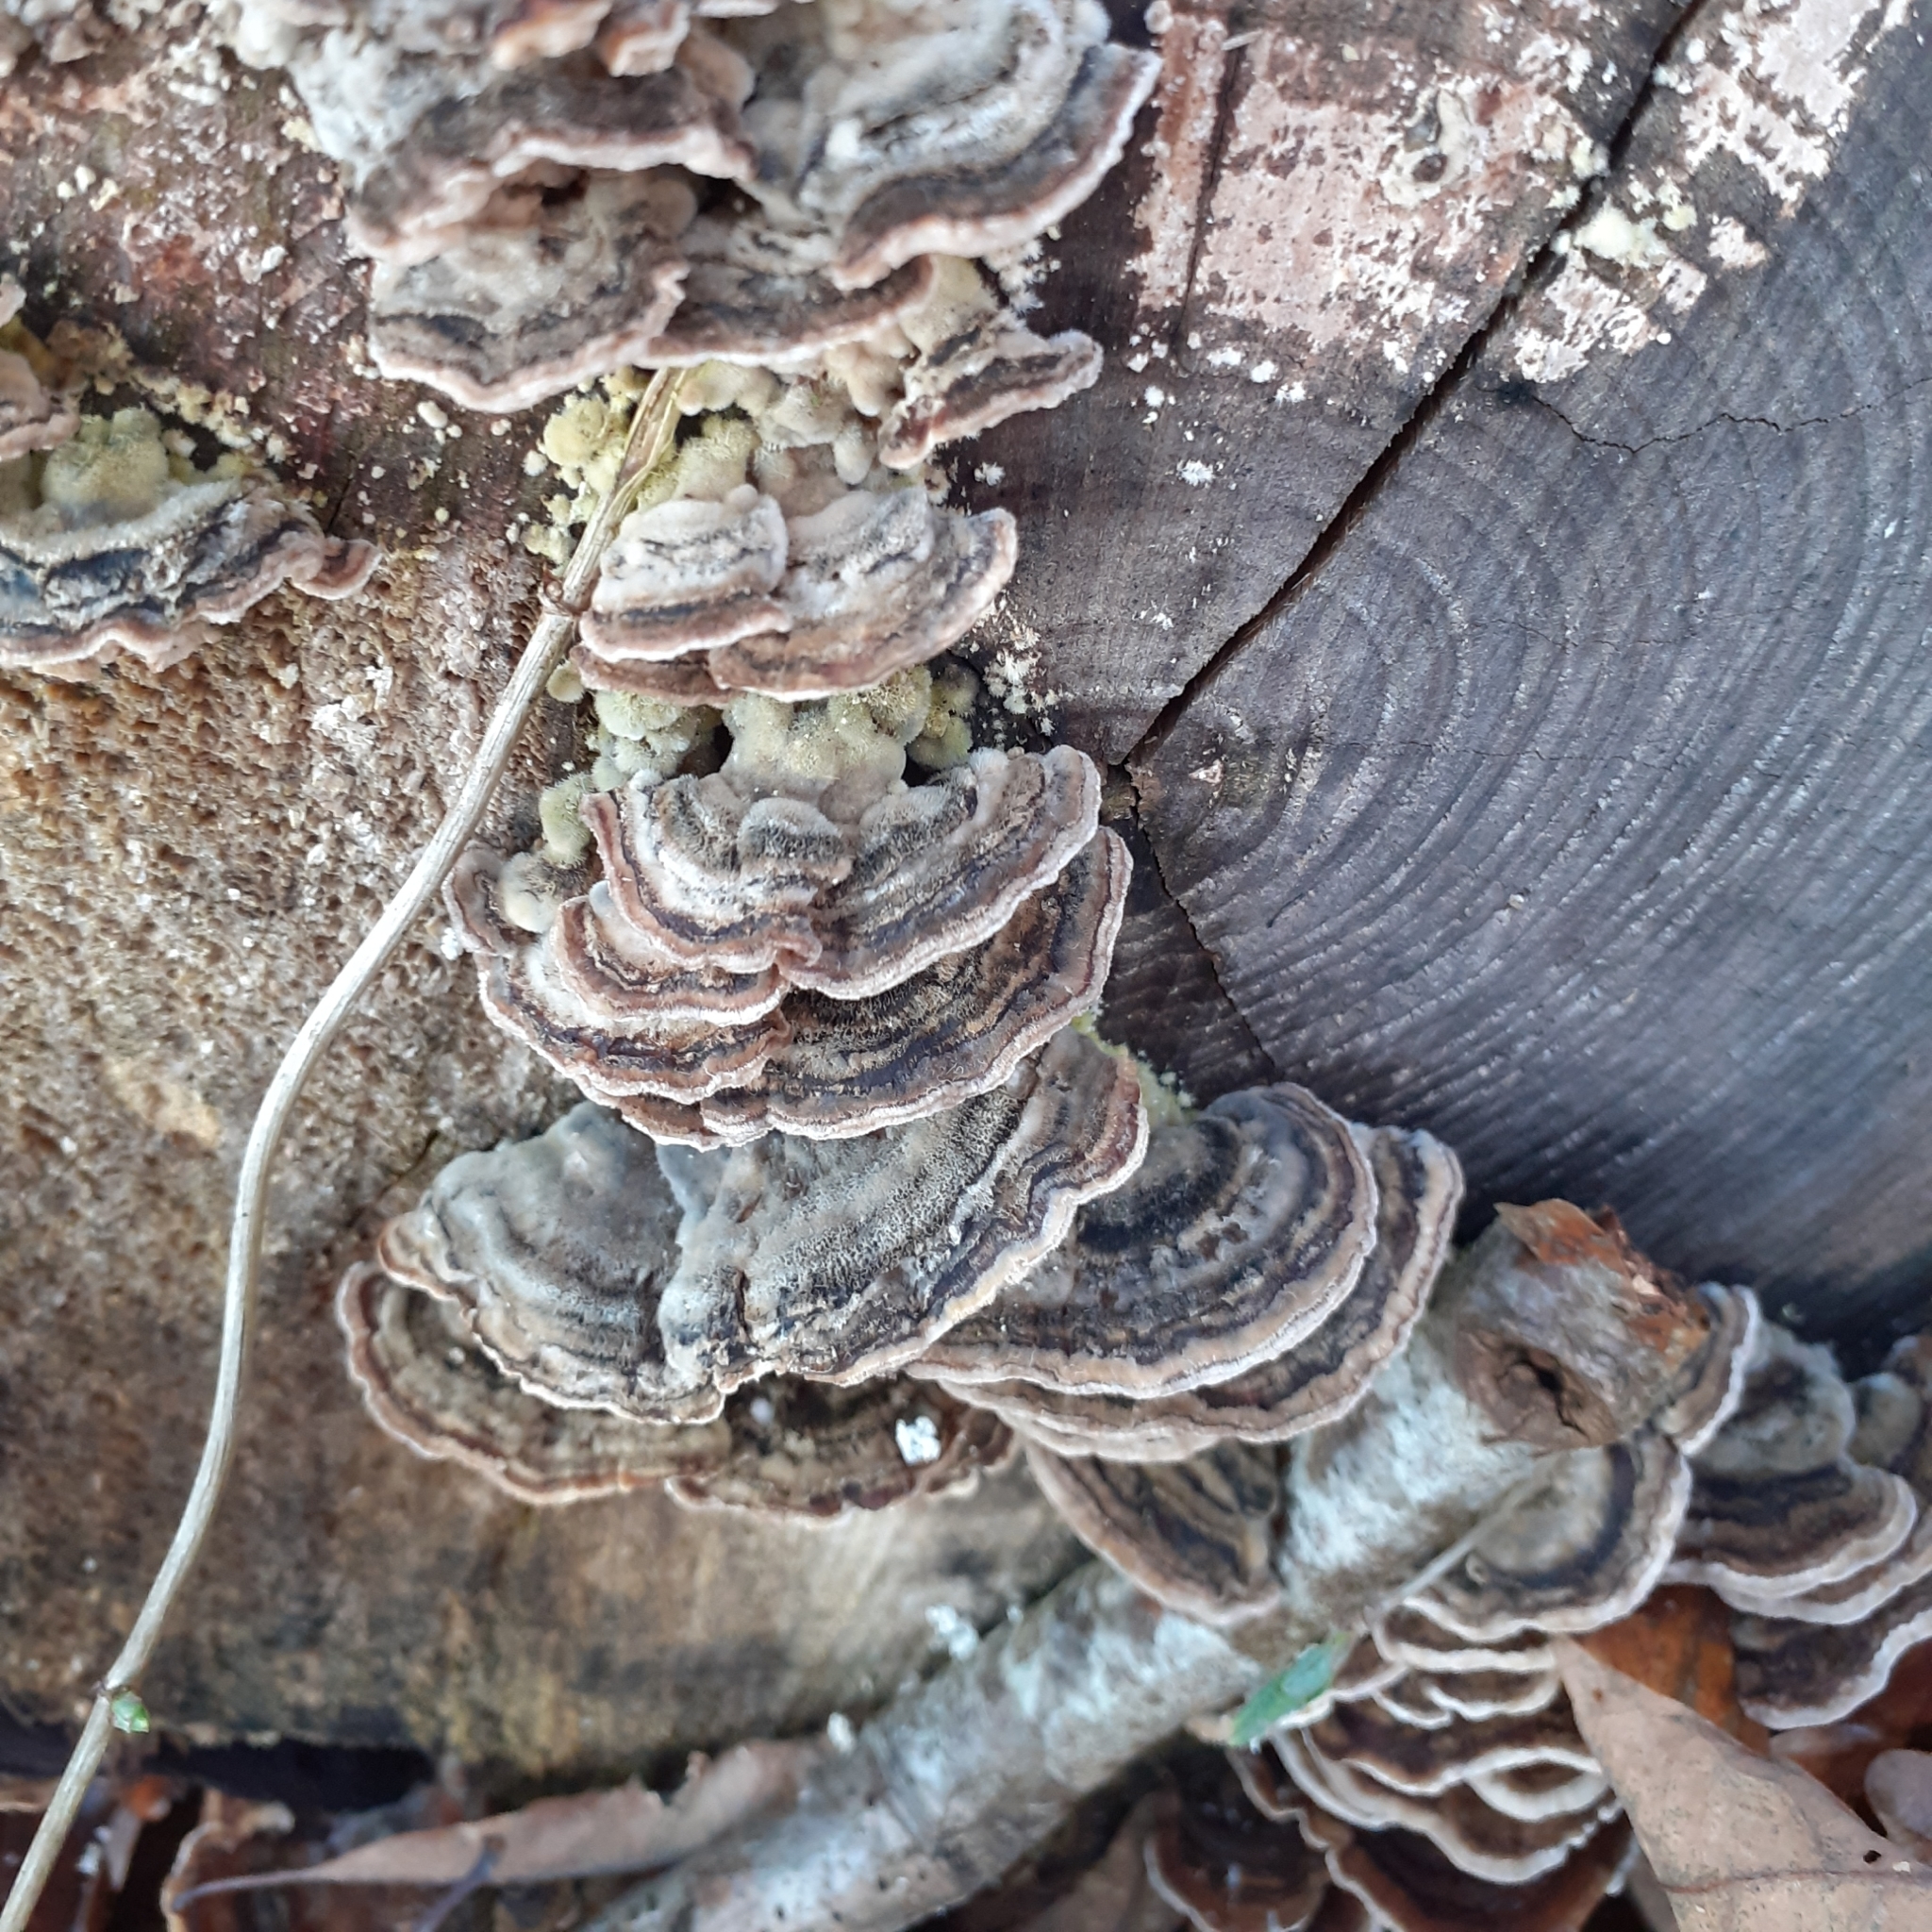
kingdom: Fungi
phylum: Basidiomycota
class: Agaricomycetes
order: Polyporales
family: Polyporaceae
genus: Trametes
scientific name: Trametes versicolor
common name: Turkeytail
